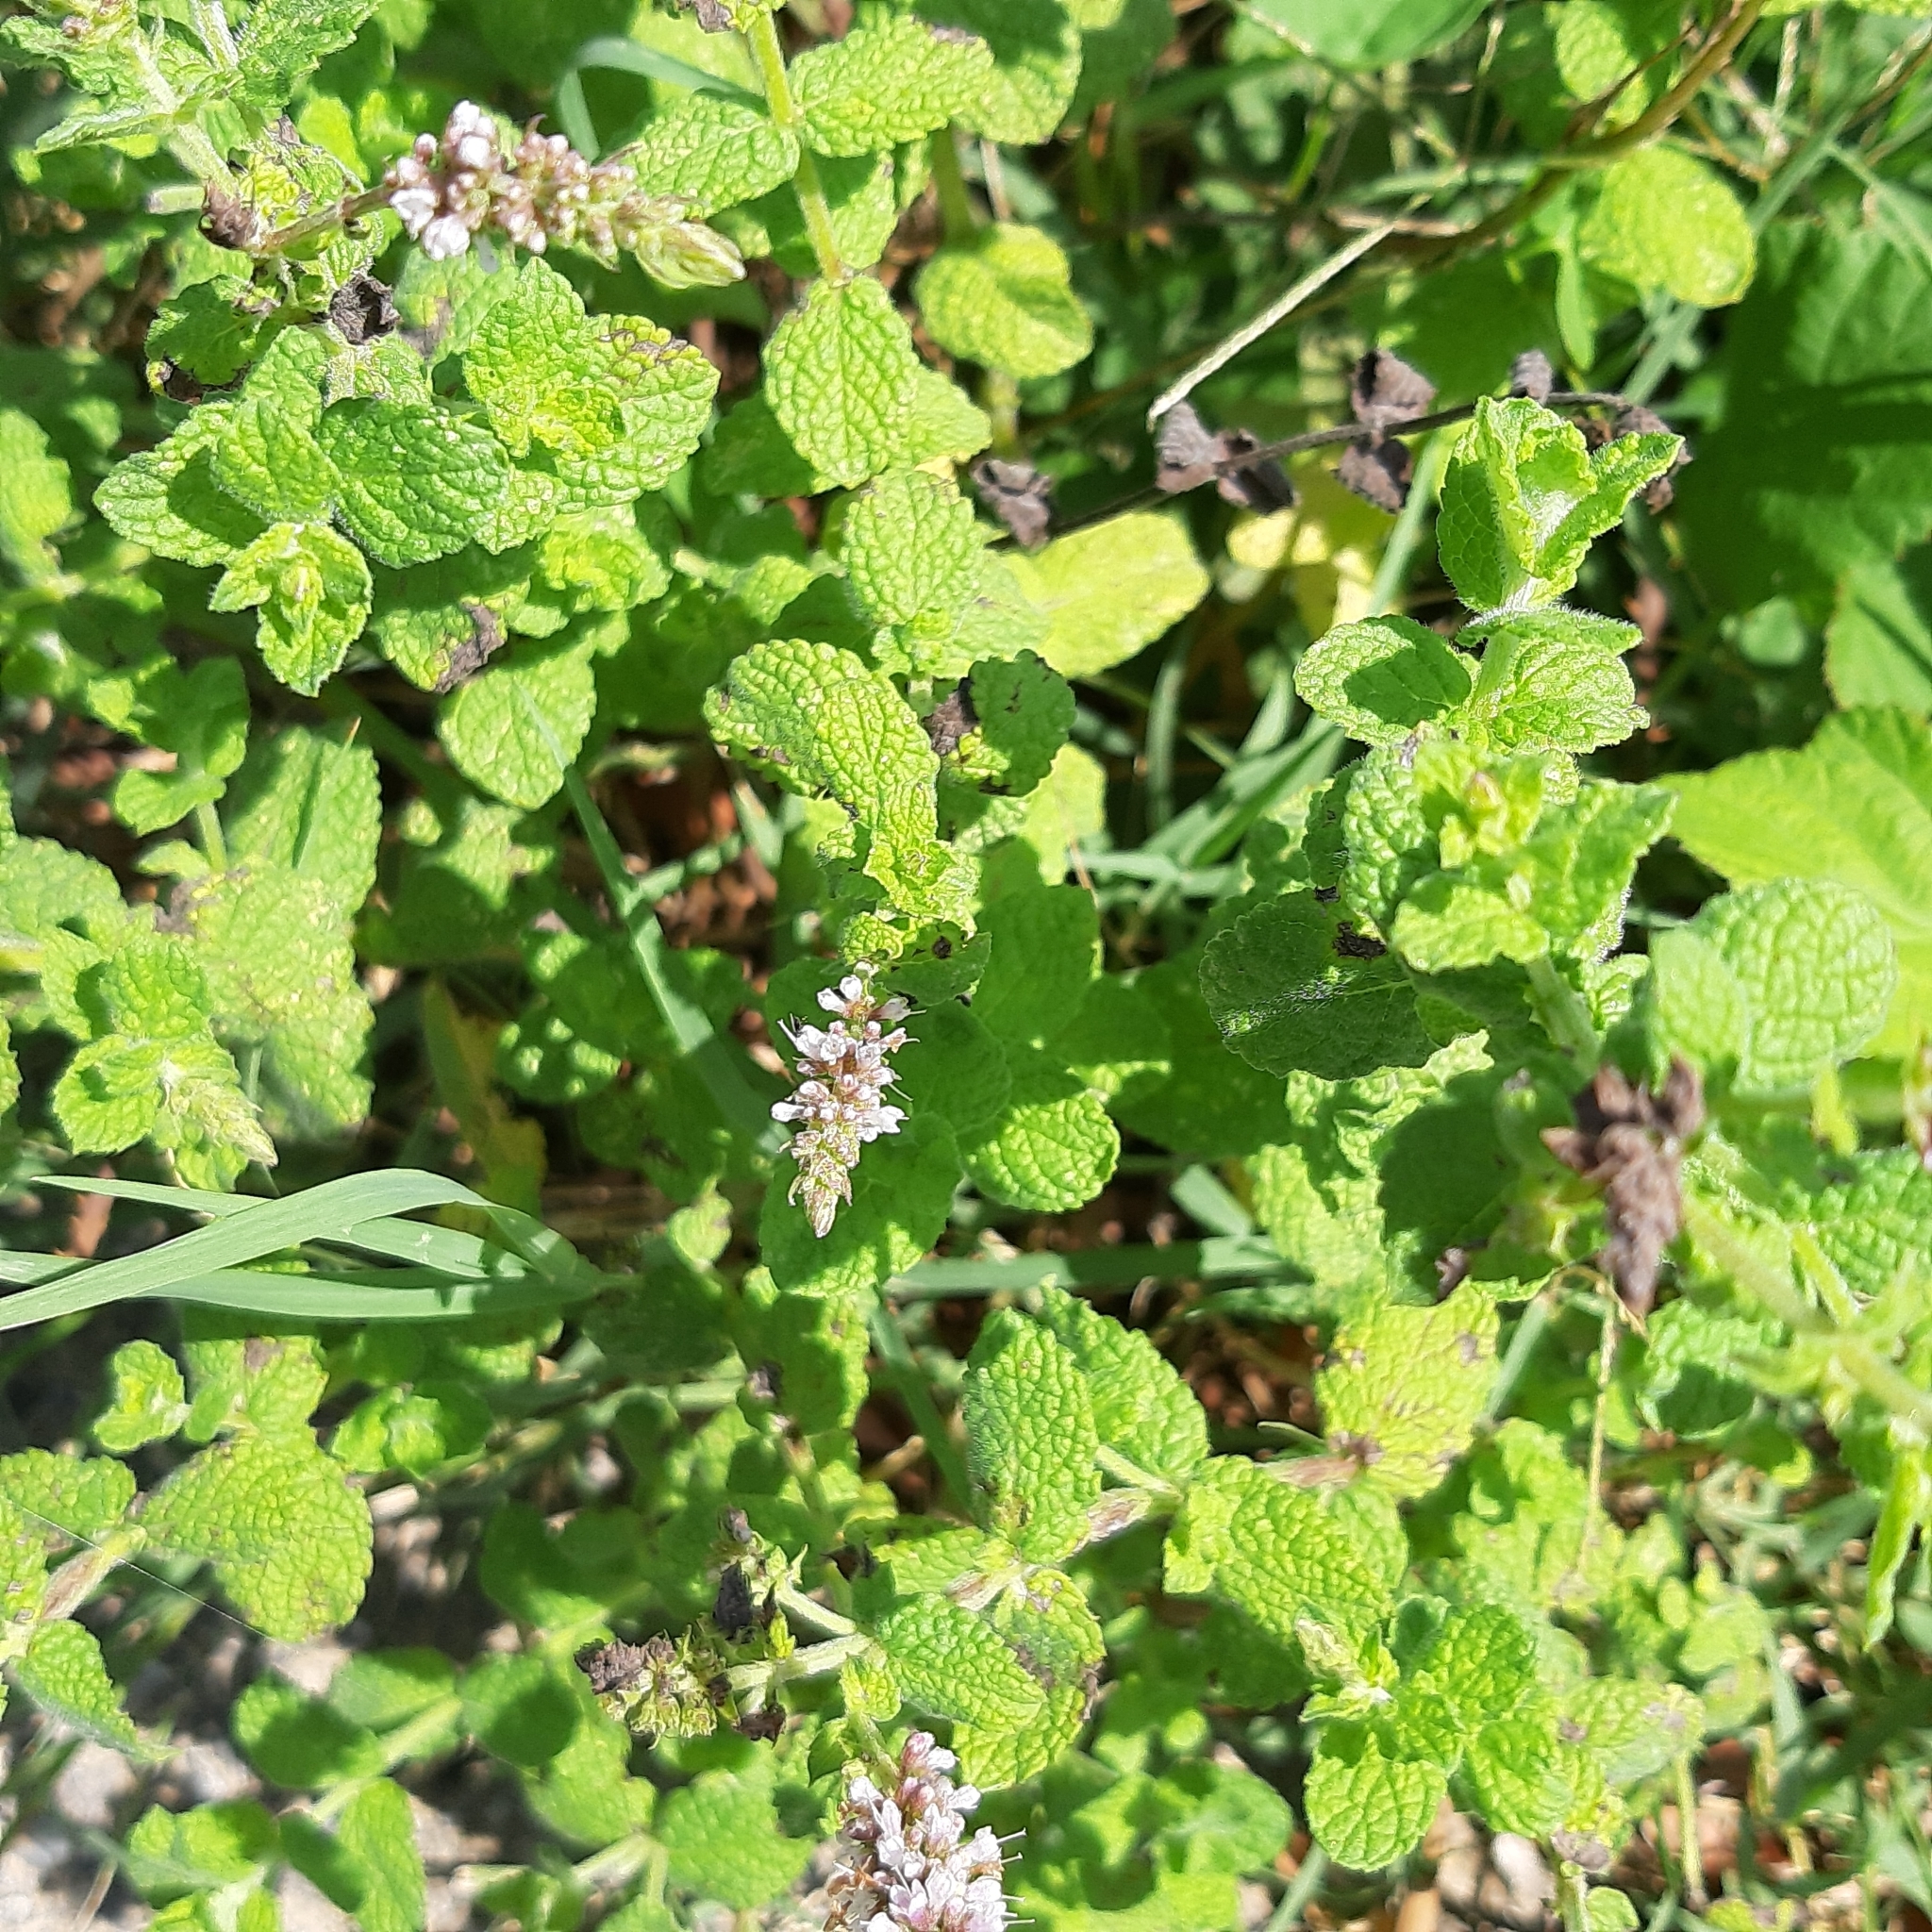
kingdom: Plantae
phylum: Tracheophyta
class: Magnoliopsida
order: Lamiales
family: Lamiaceae
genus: Mentha
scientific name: Mentha suaveolens
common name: Apple mint
